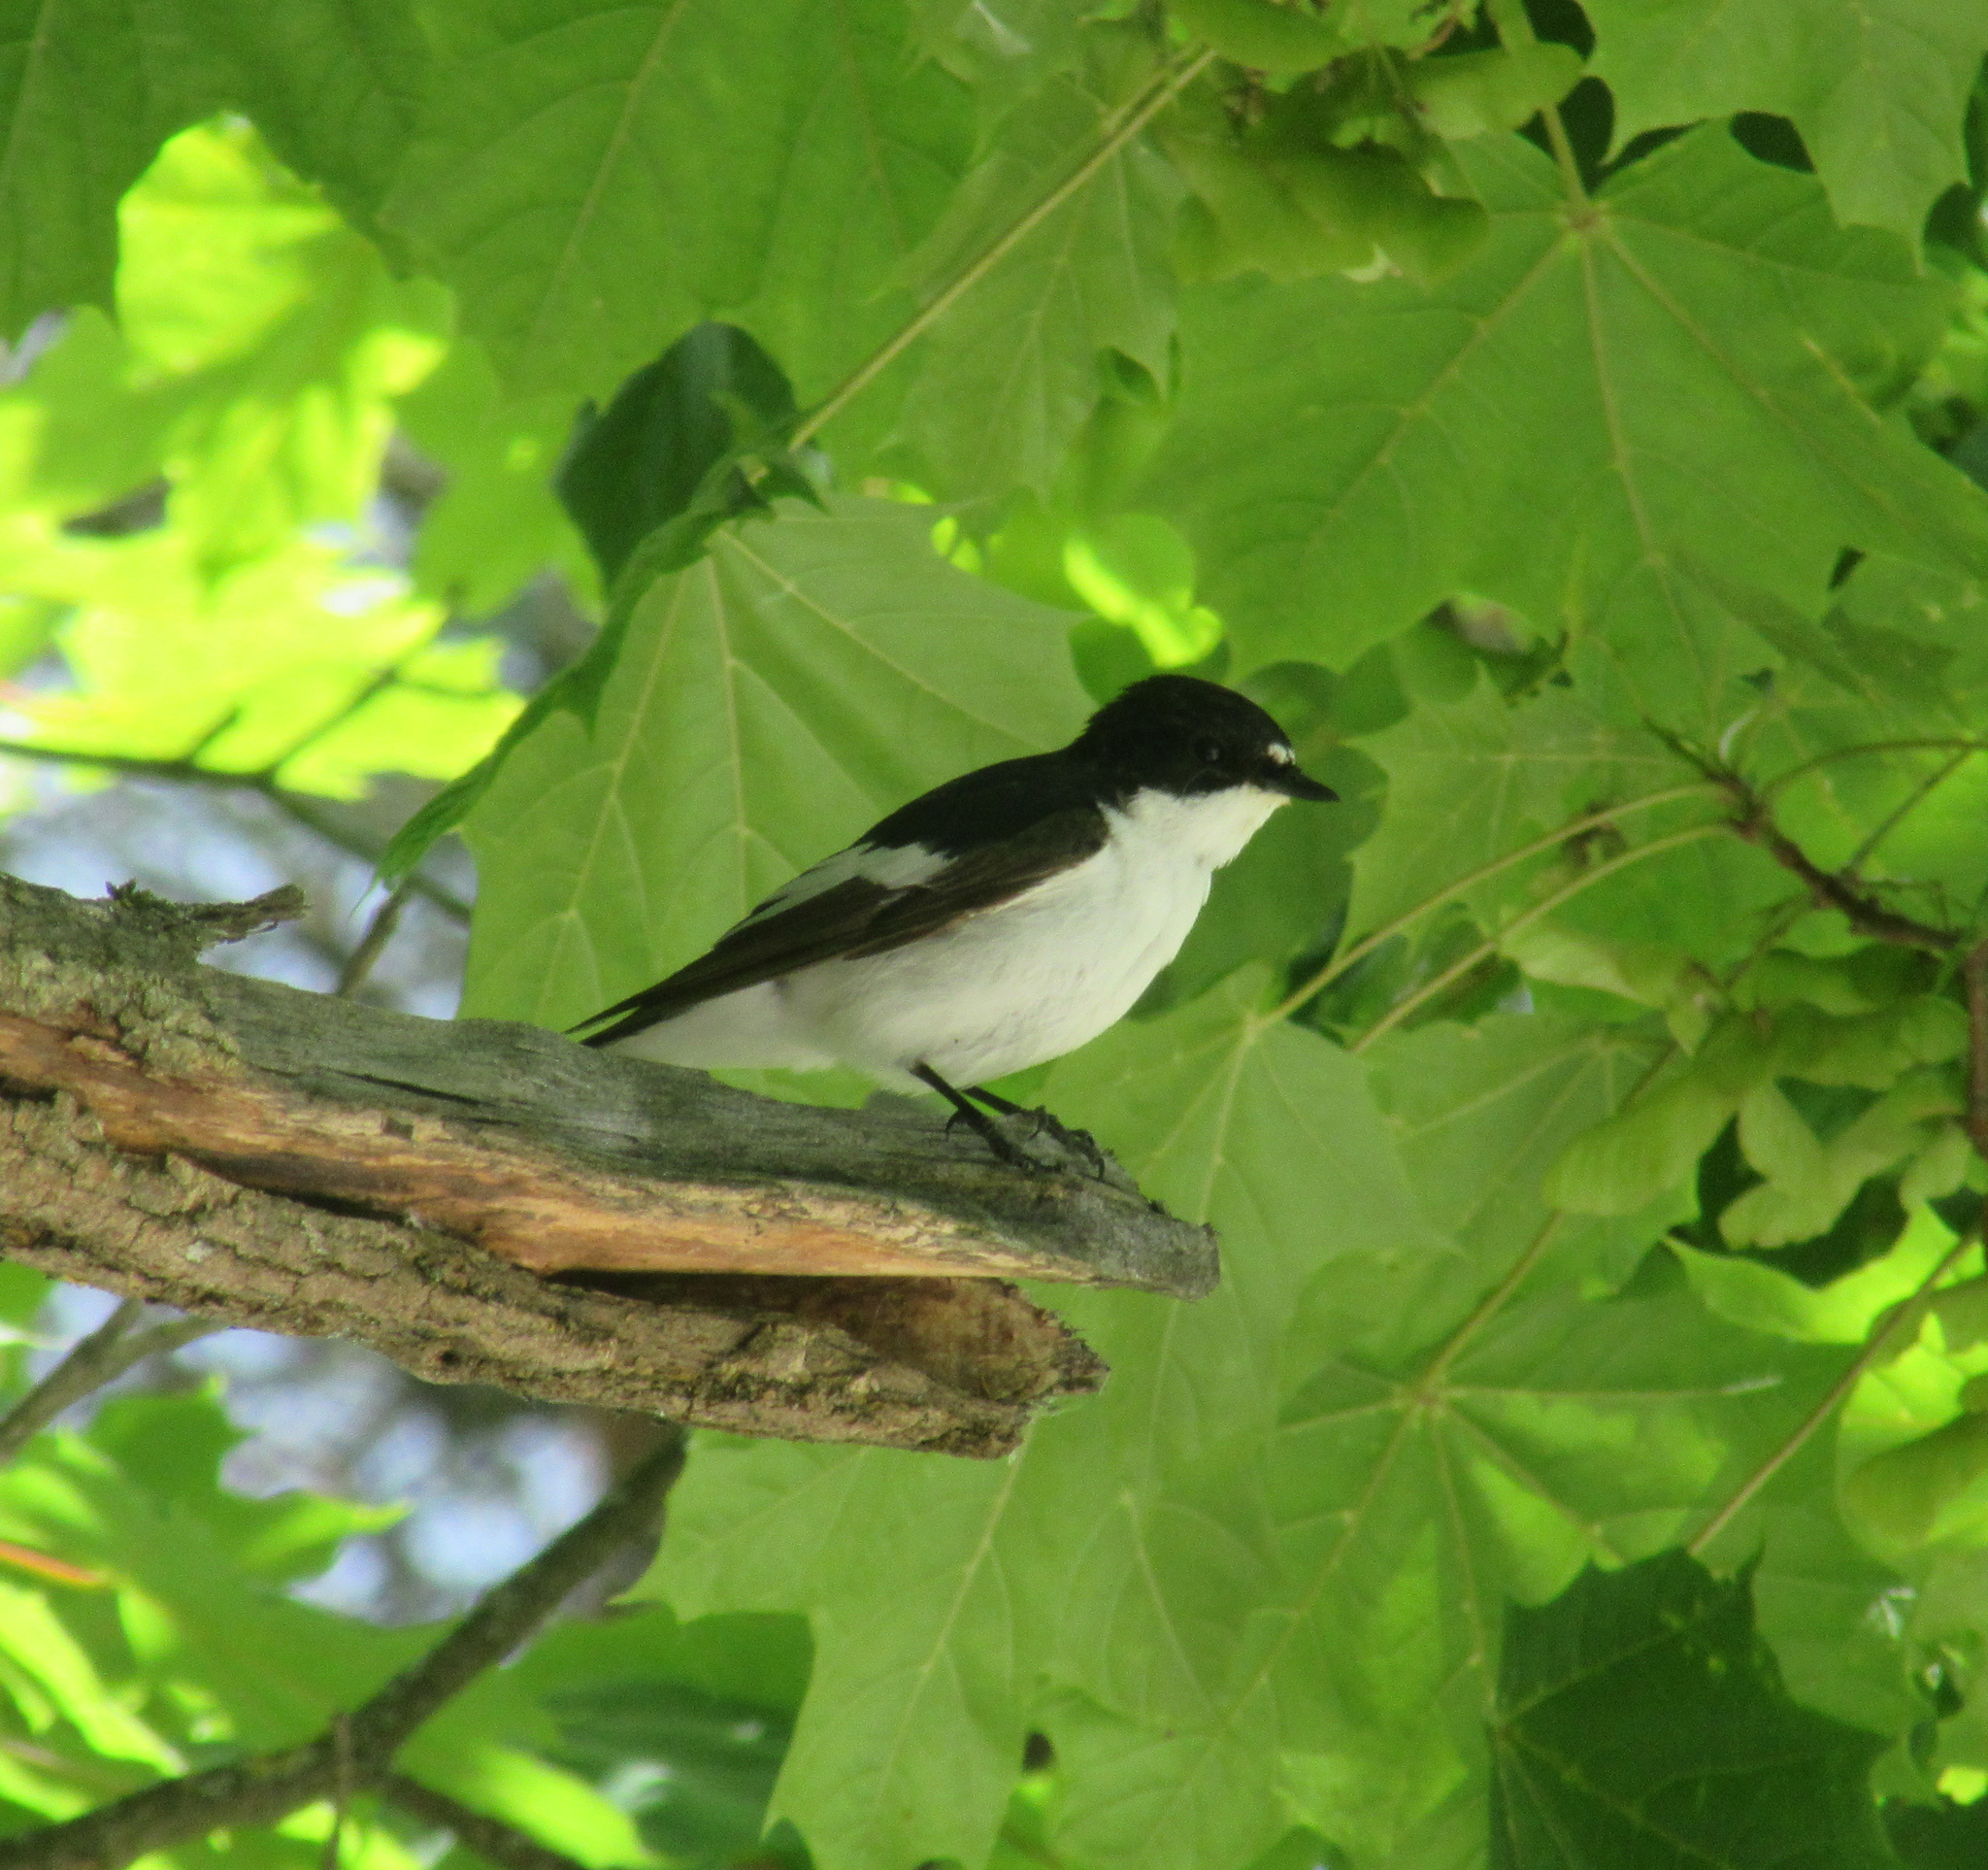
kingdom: Animalia
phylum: Chordata
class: Aves
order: Passeriformes
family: Muscicapidae
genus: Ficedula
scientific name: Ficedula hypoleuca
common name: European pied flycatcher
